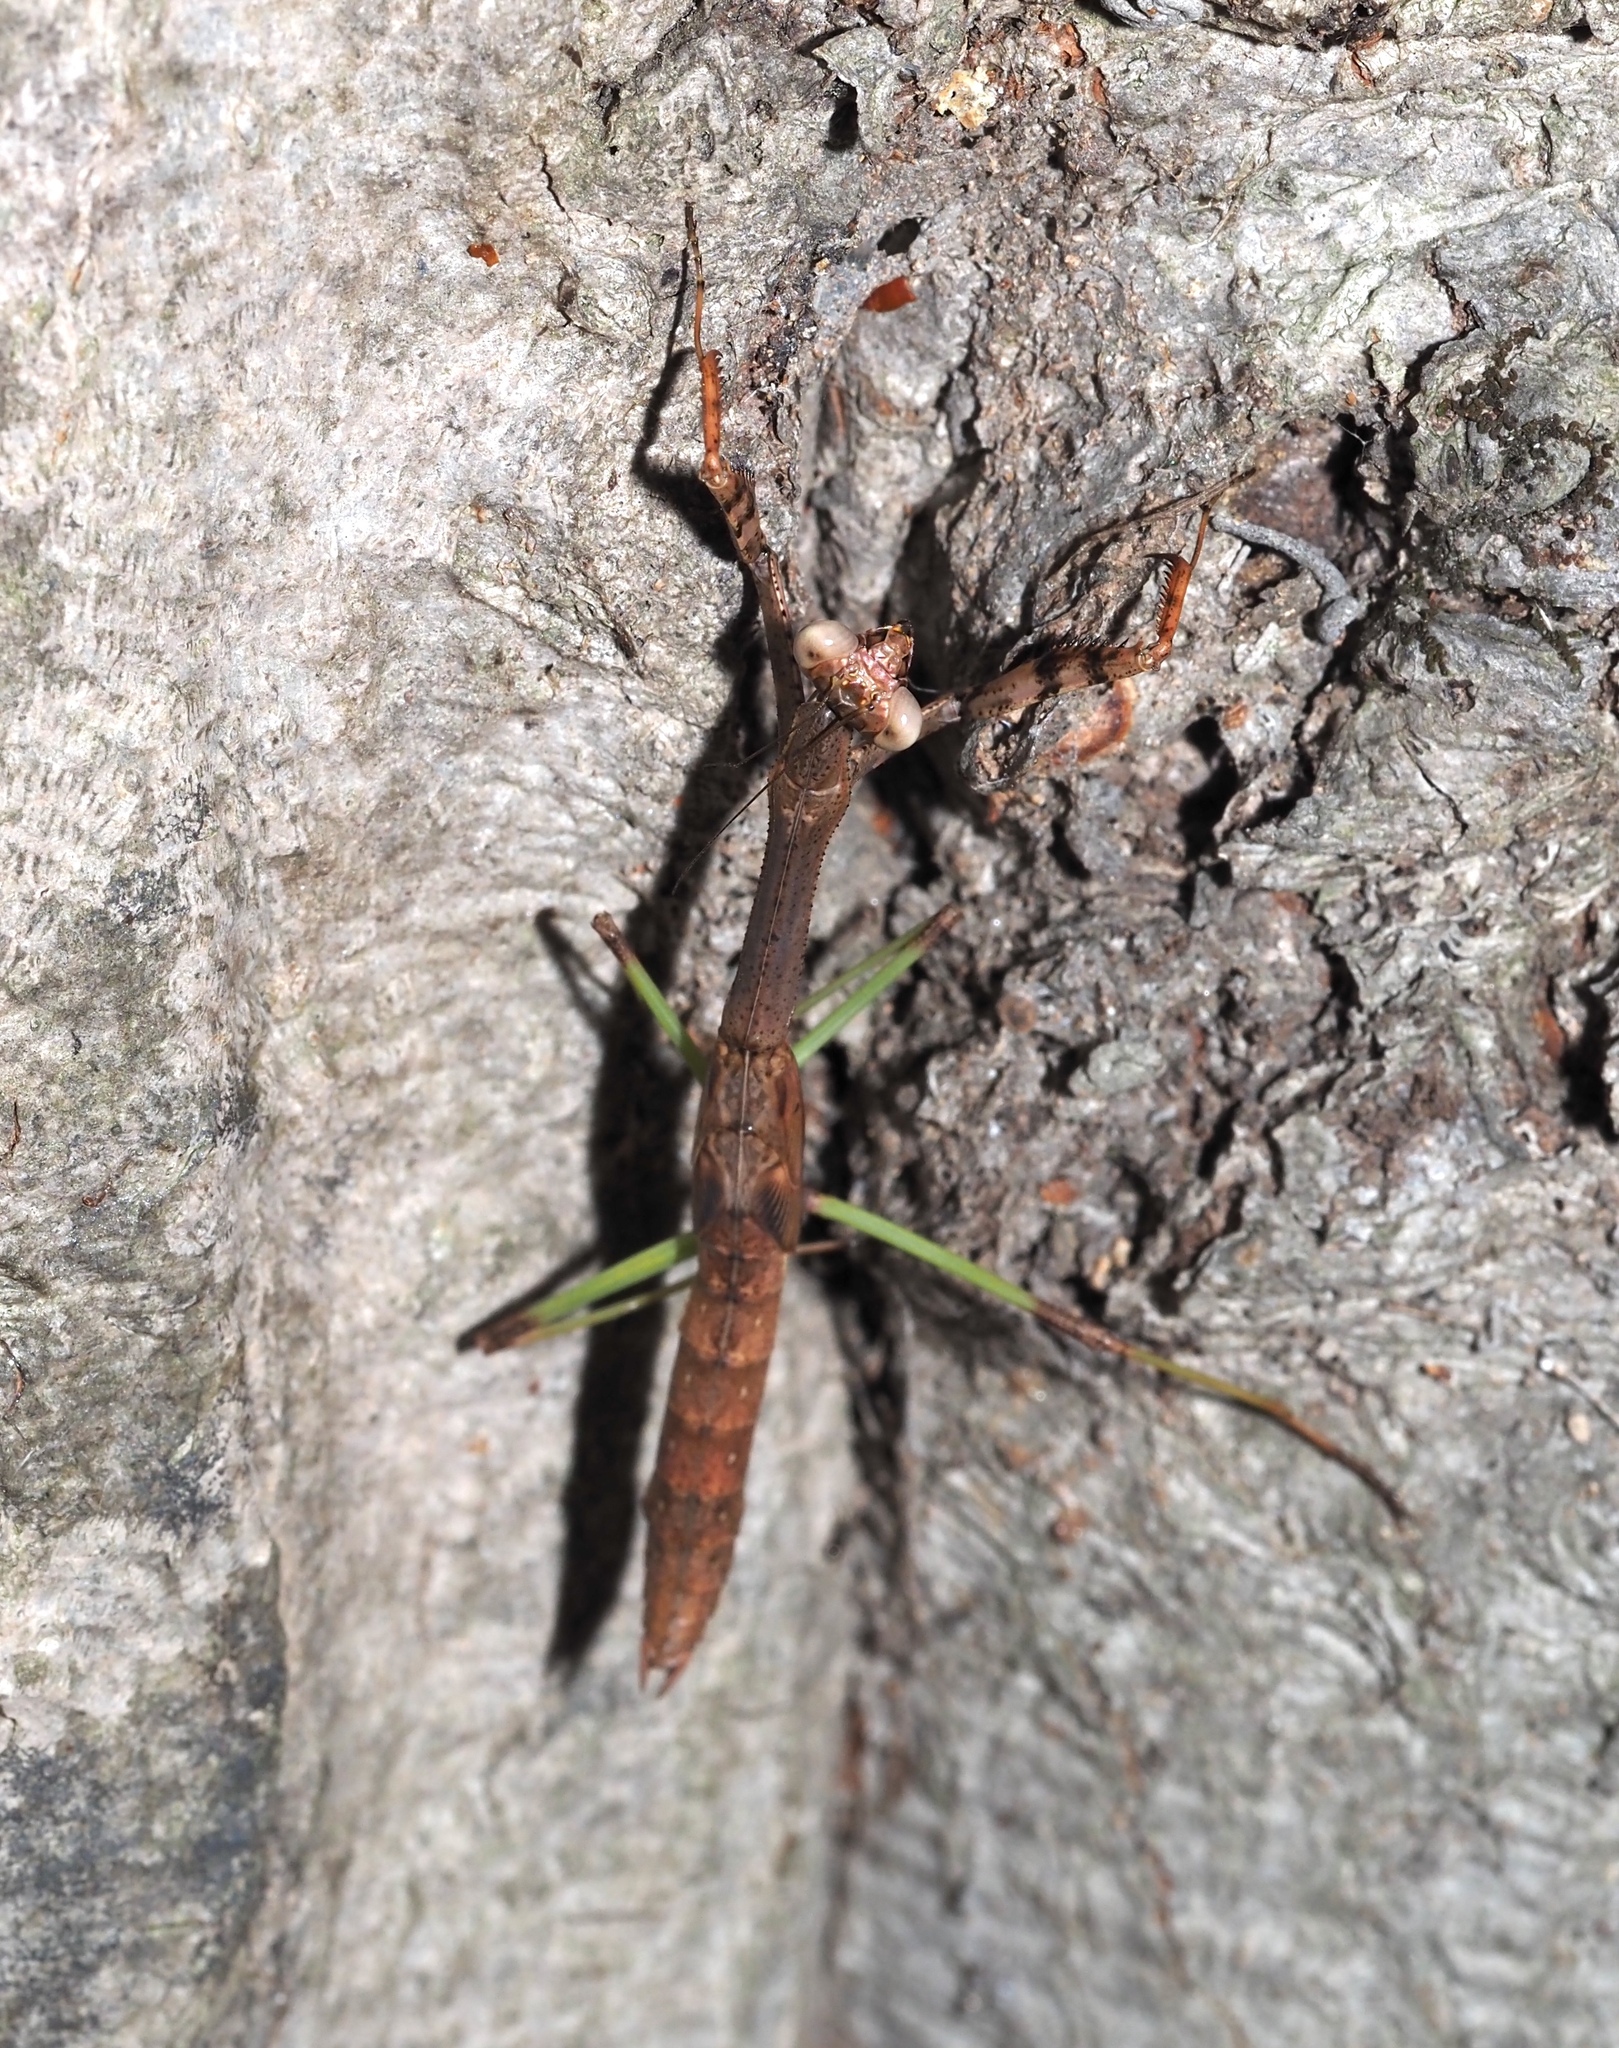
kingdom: Animalia
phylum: Arthropoda
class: Insecta
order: Mantodea
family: Mantidae
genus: Stagmomantis
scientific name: Stagmomantis carolina
